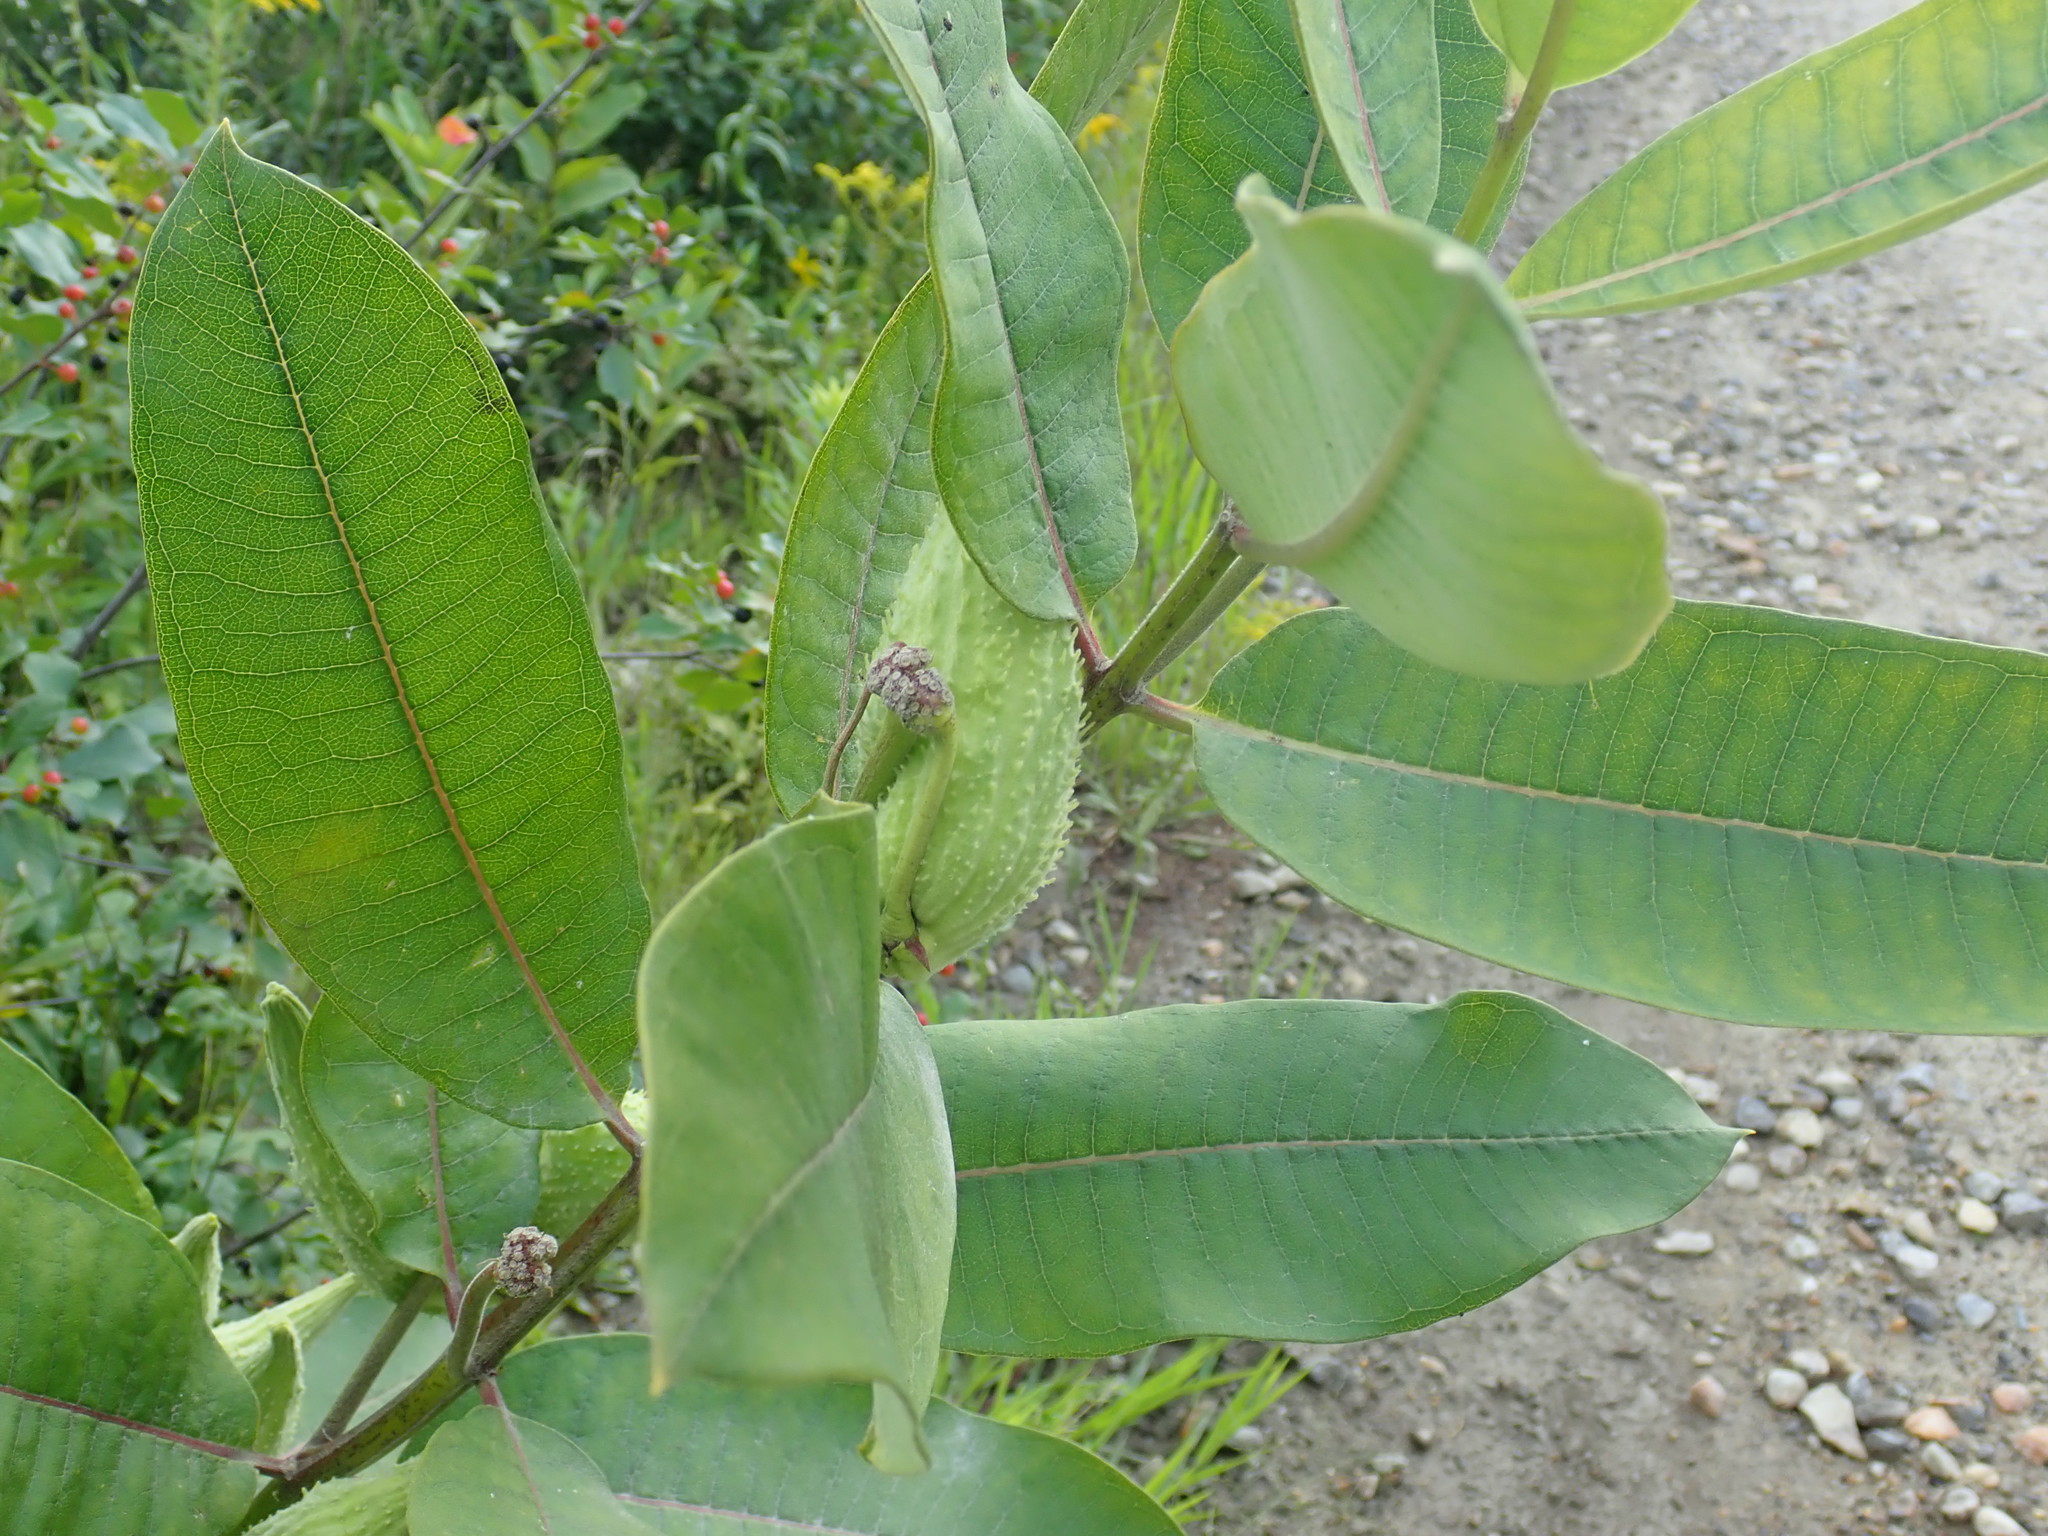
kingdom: Plantae
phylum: Tracheophyta
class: Magnoliopsida
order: Gentianales
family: Apocynaceae
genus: Asclepias
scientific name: Asclepias syriaca
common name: Common milkweed
